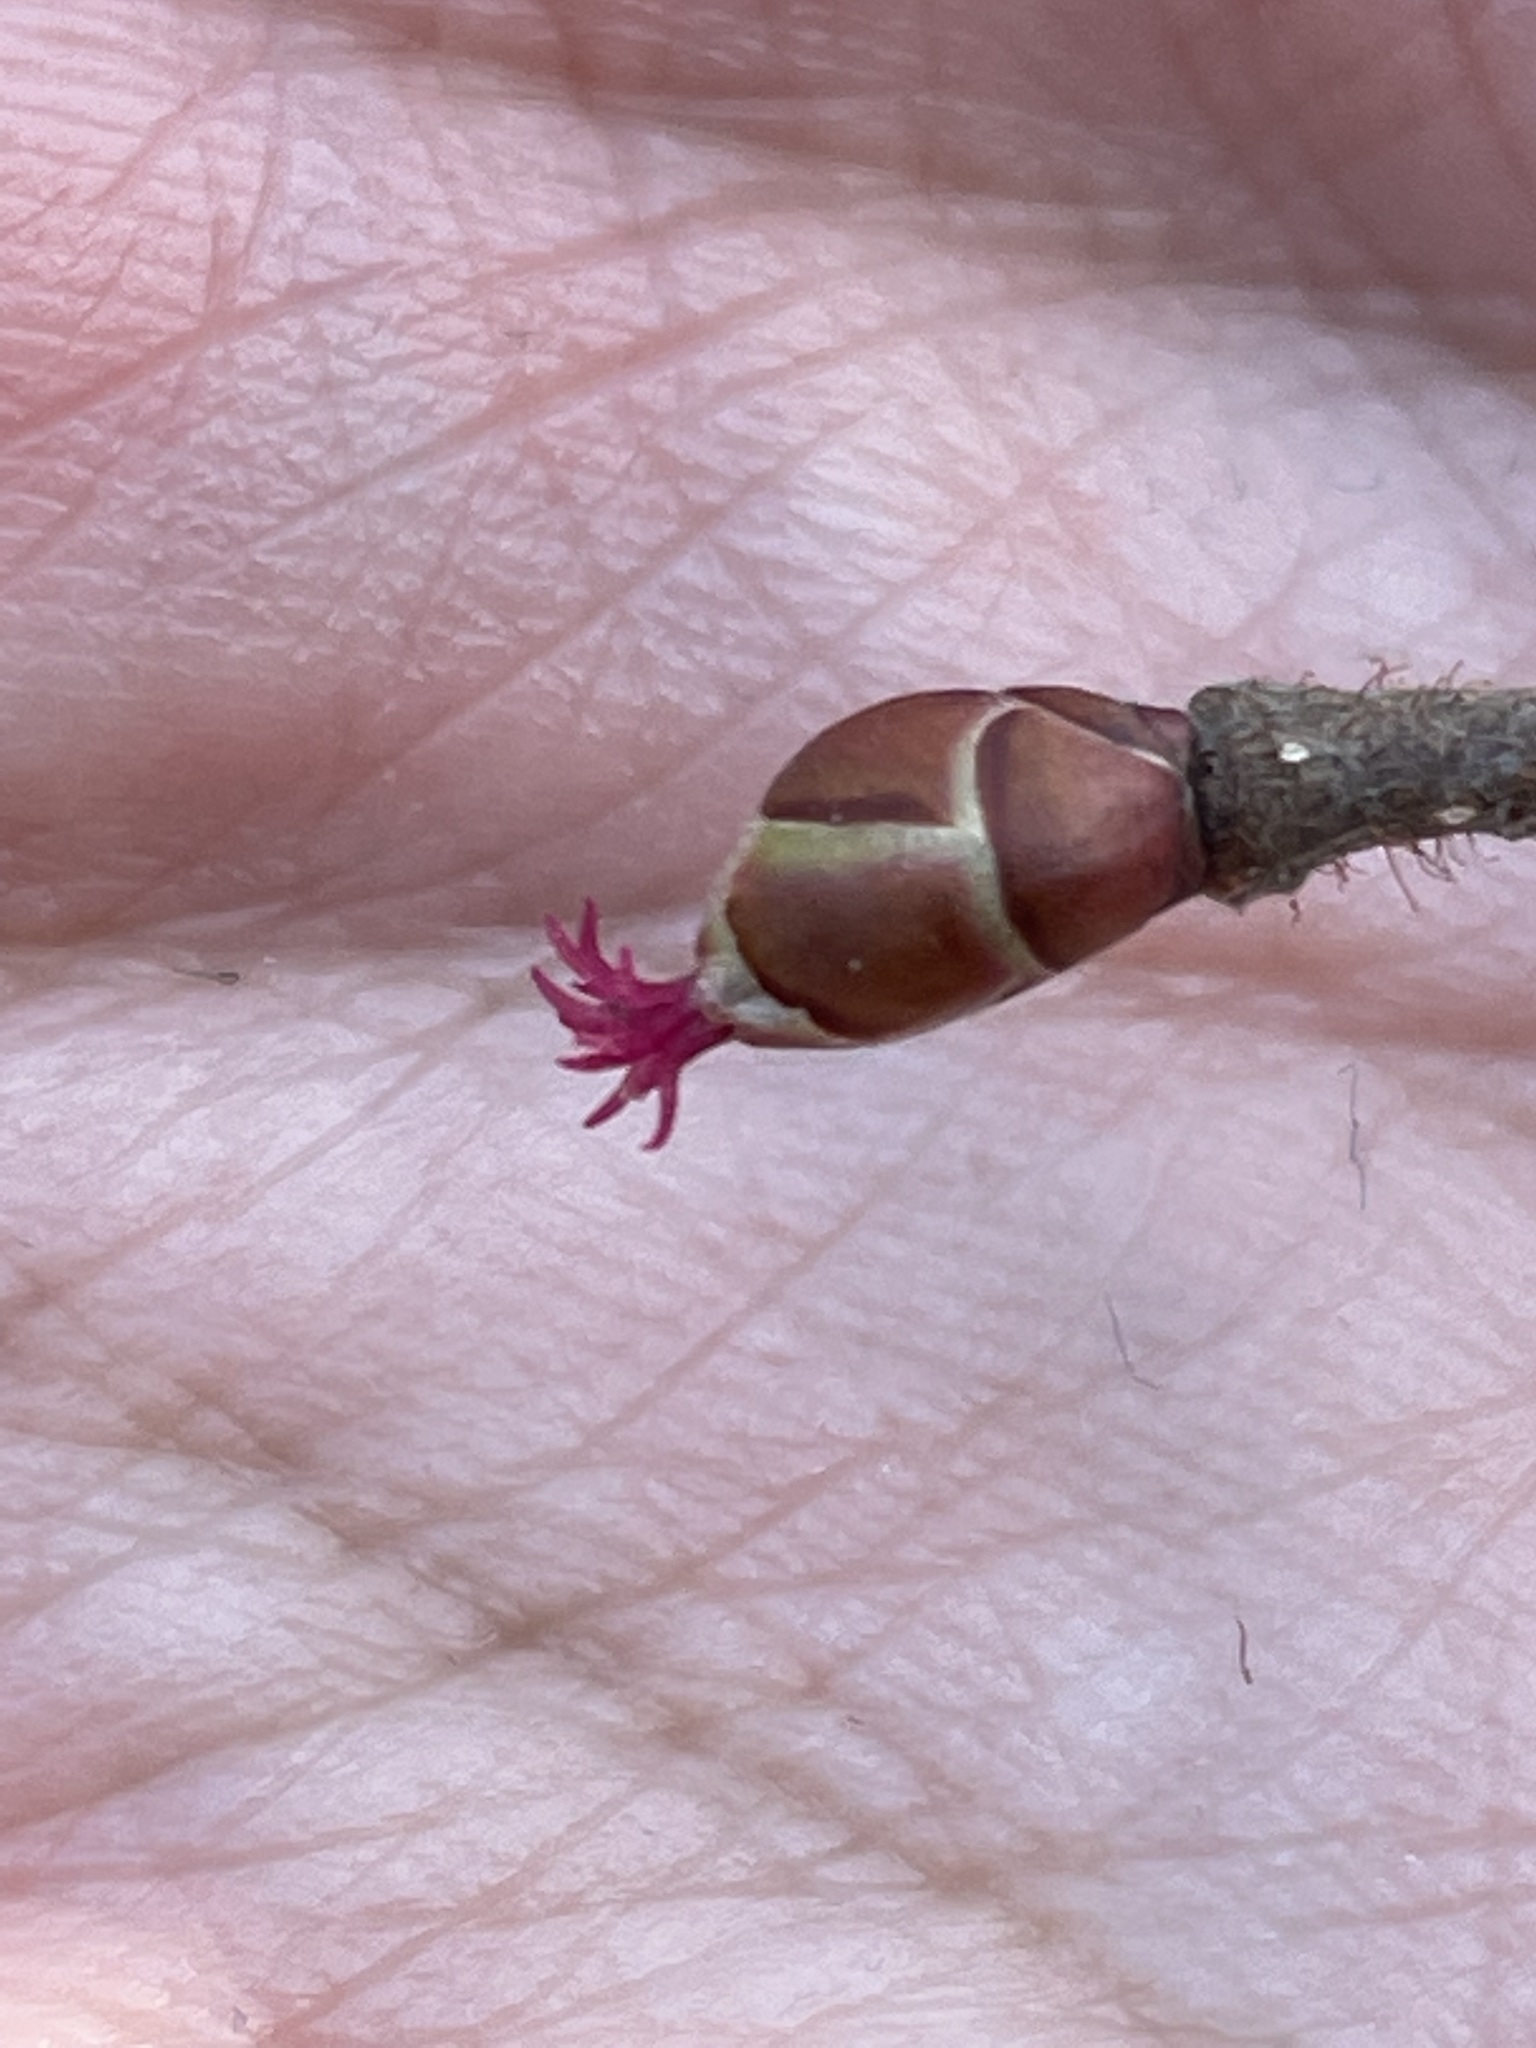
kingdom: Plantae
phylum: Tracheophyta
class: Magnoliopsida
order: Fagales
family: Betulaceae
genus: Corylus
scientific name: Corylus avellana
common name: European hazel
